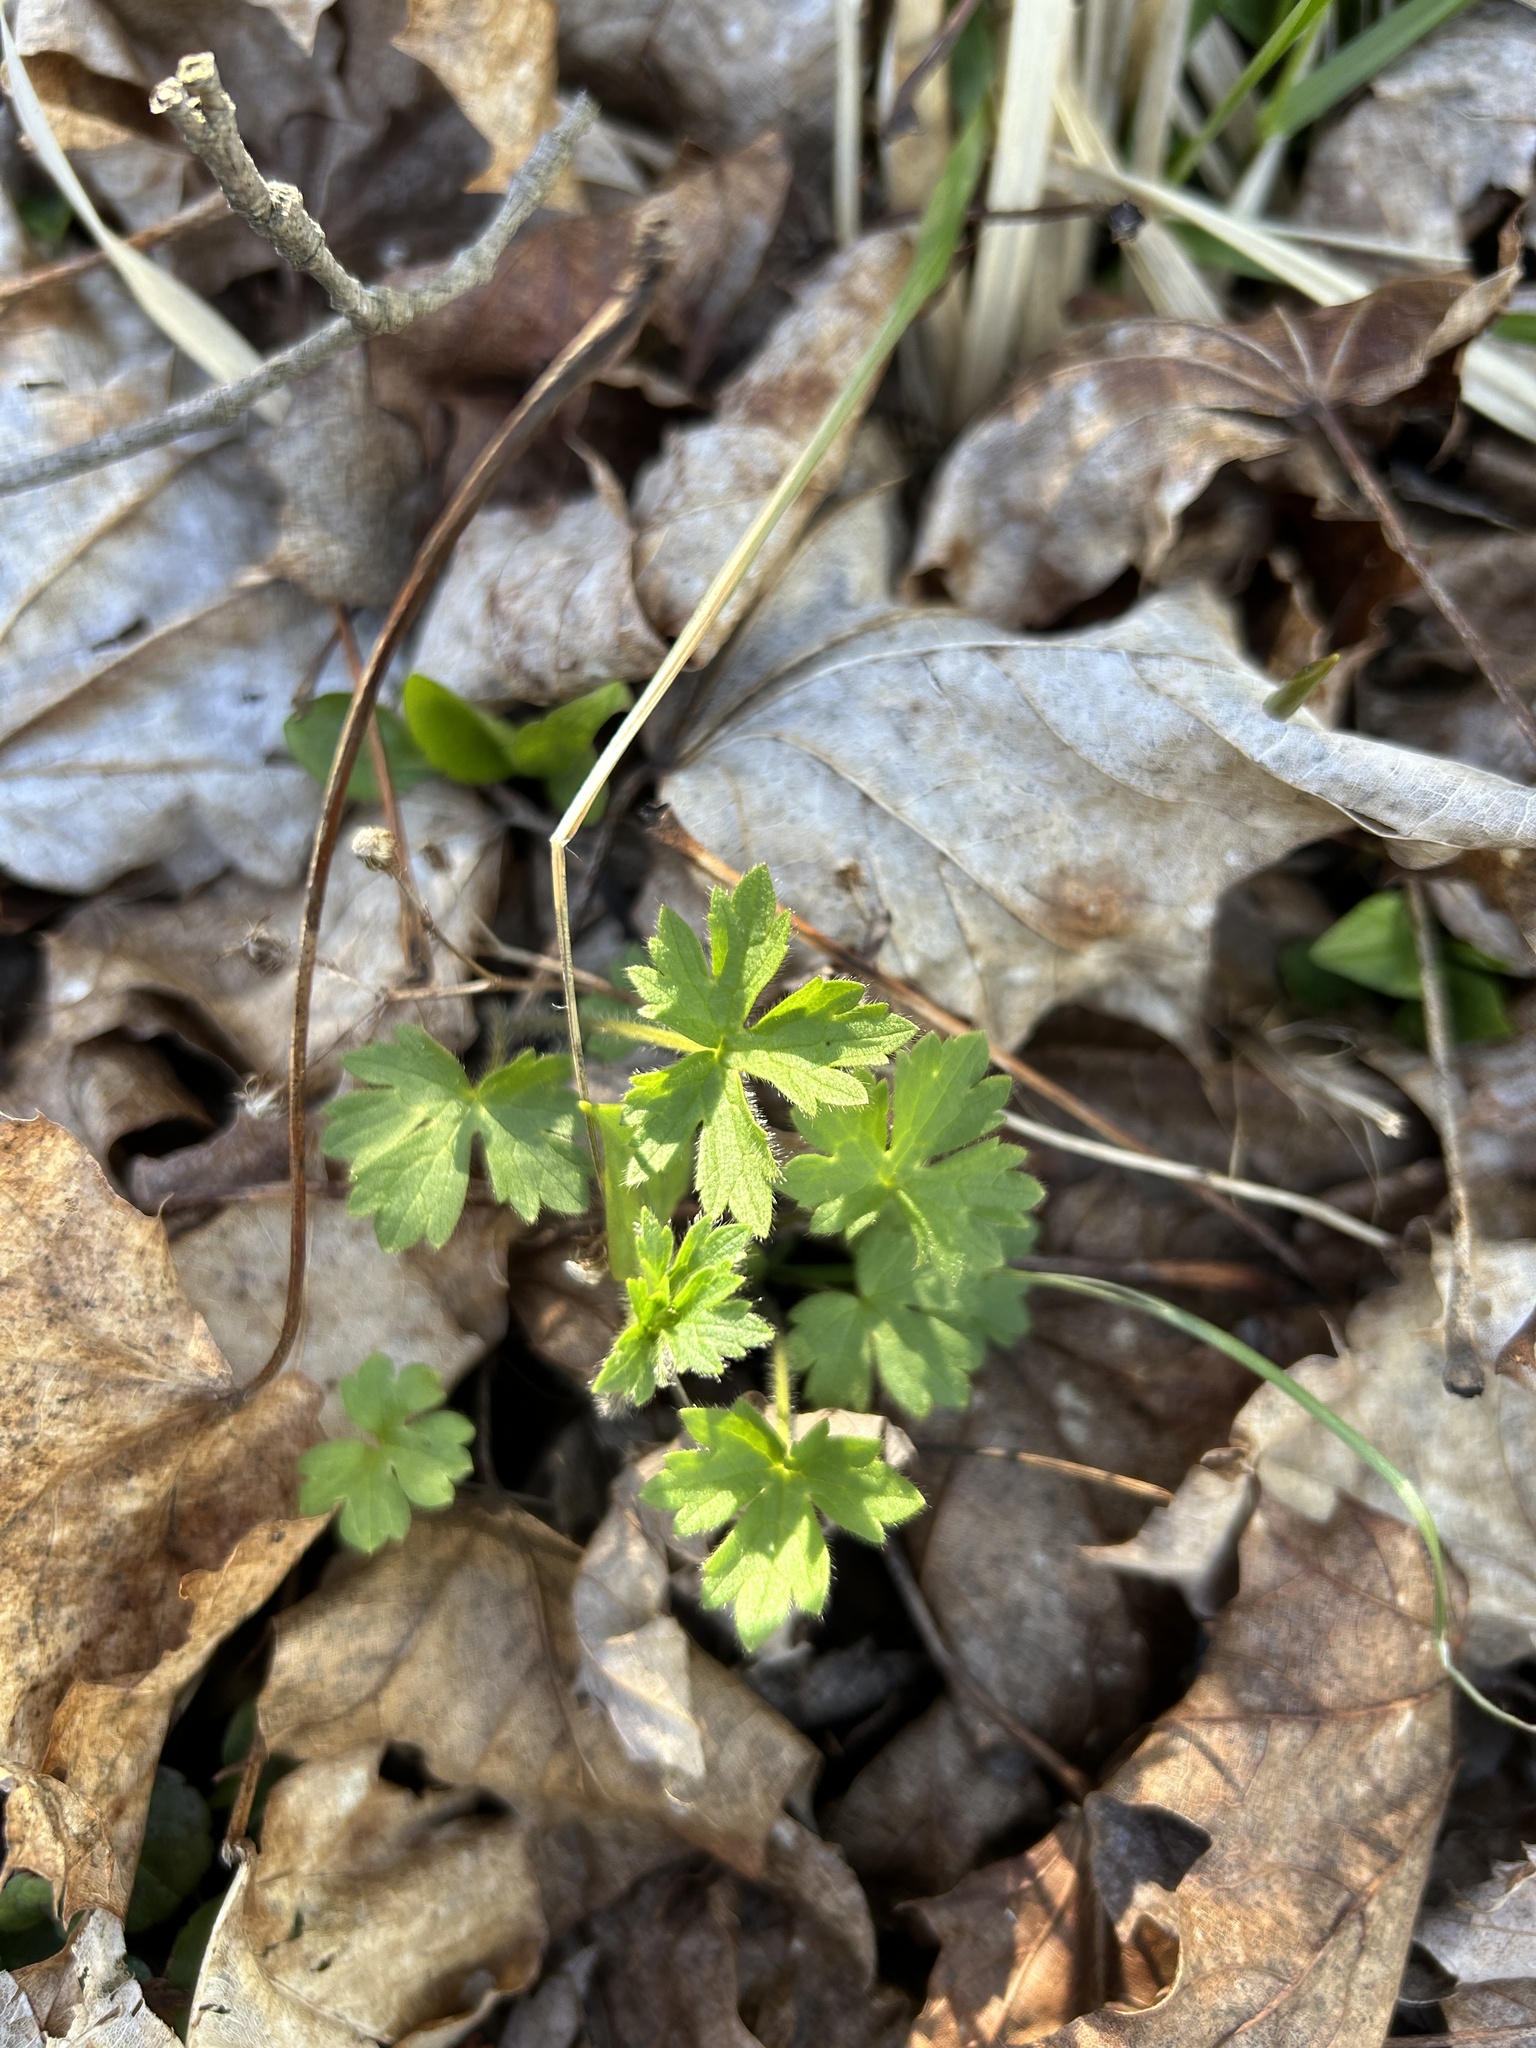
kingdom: Plantae
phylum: Tracheophyta
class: Magnoliopsida
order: Ranunculales
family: Ranunculaceae
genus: Ranunculus
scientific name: Ranunculus acris
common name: Meadow buttercup
